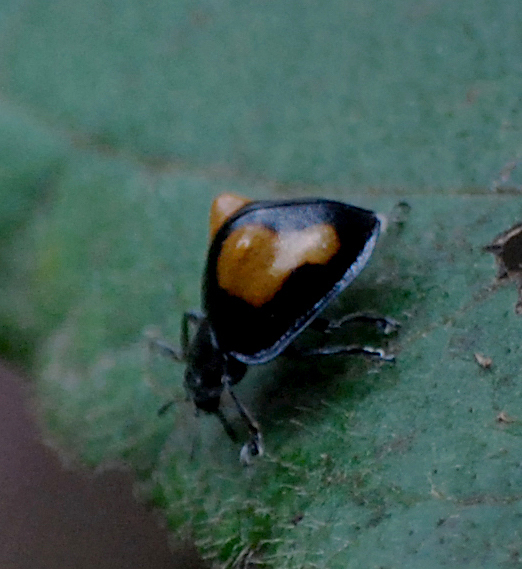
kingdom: Animalia
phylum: Arthropoda
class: Insecta
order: Coleoptera
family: Coccinellidae
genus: Epilachna
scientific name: Epilachna
